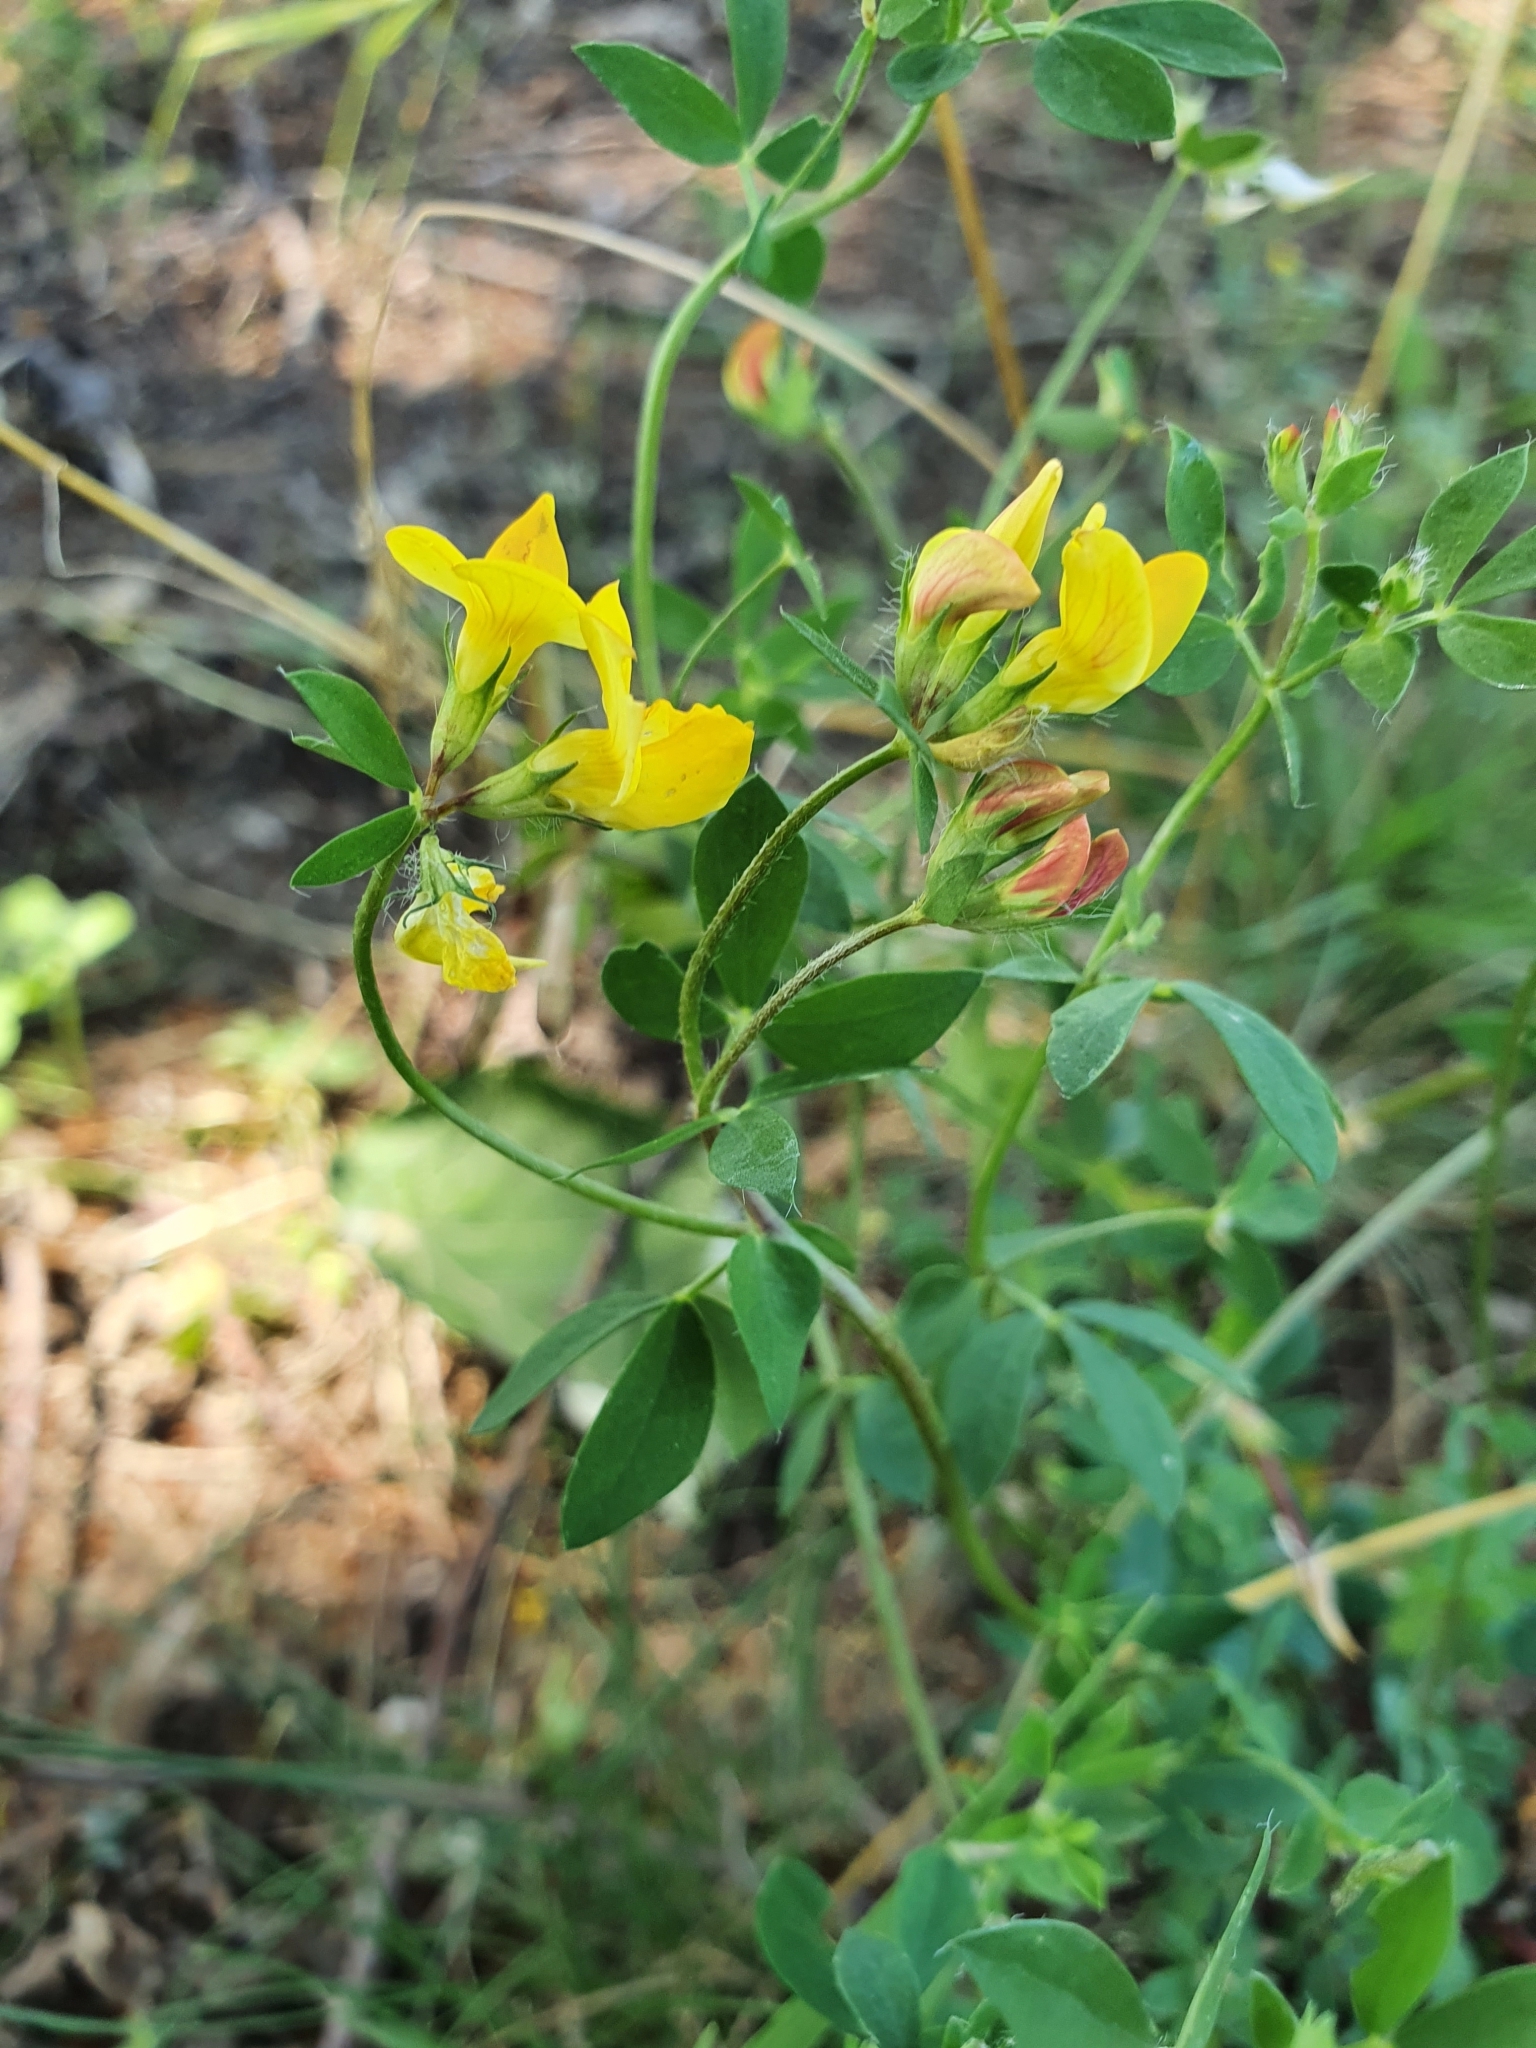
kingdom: Plantae
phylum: Tracheophyta
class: Magnoliopsida
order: Fabales
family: Fabaceae
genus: Lotus
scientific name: Lotus corniculatus
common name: Common bird's-foot-trefoil
